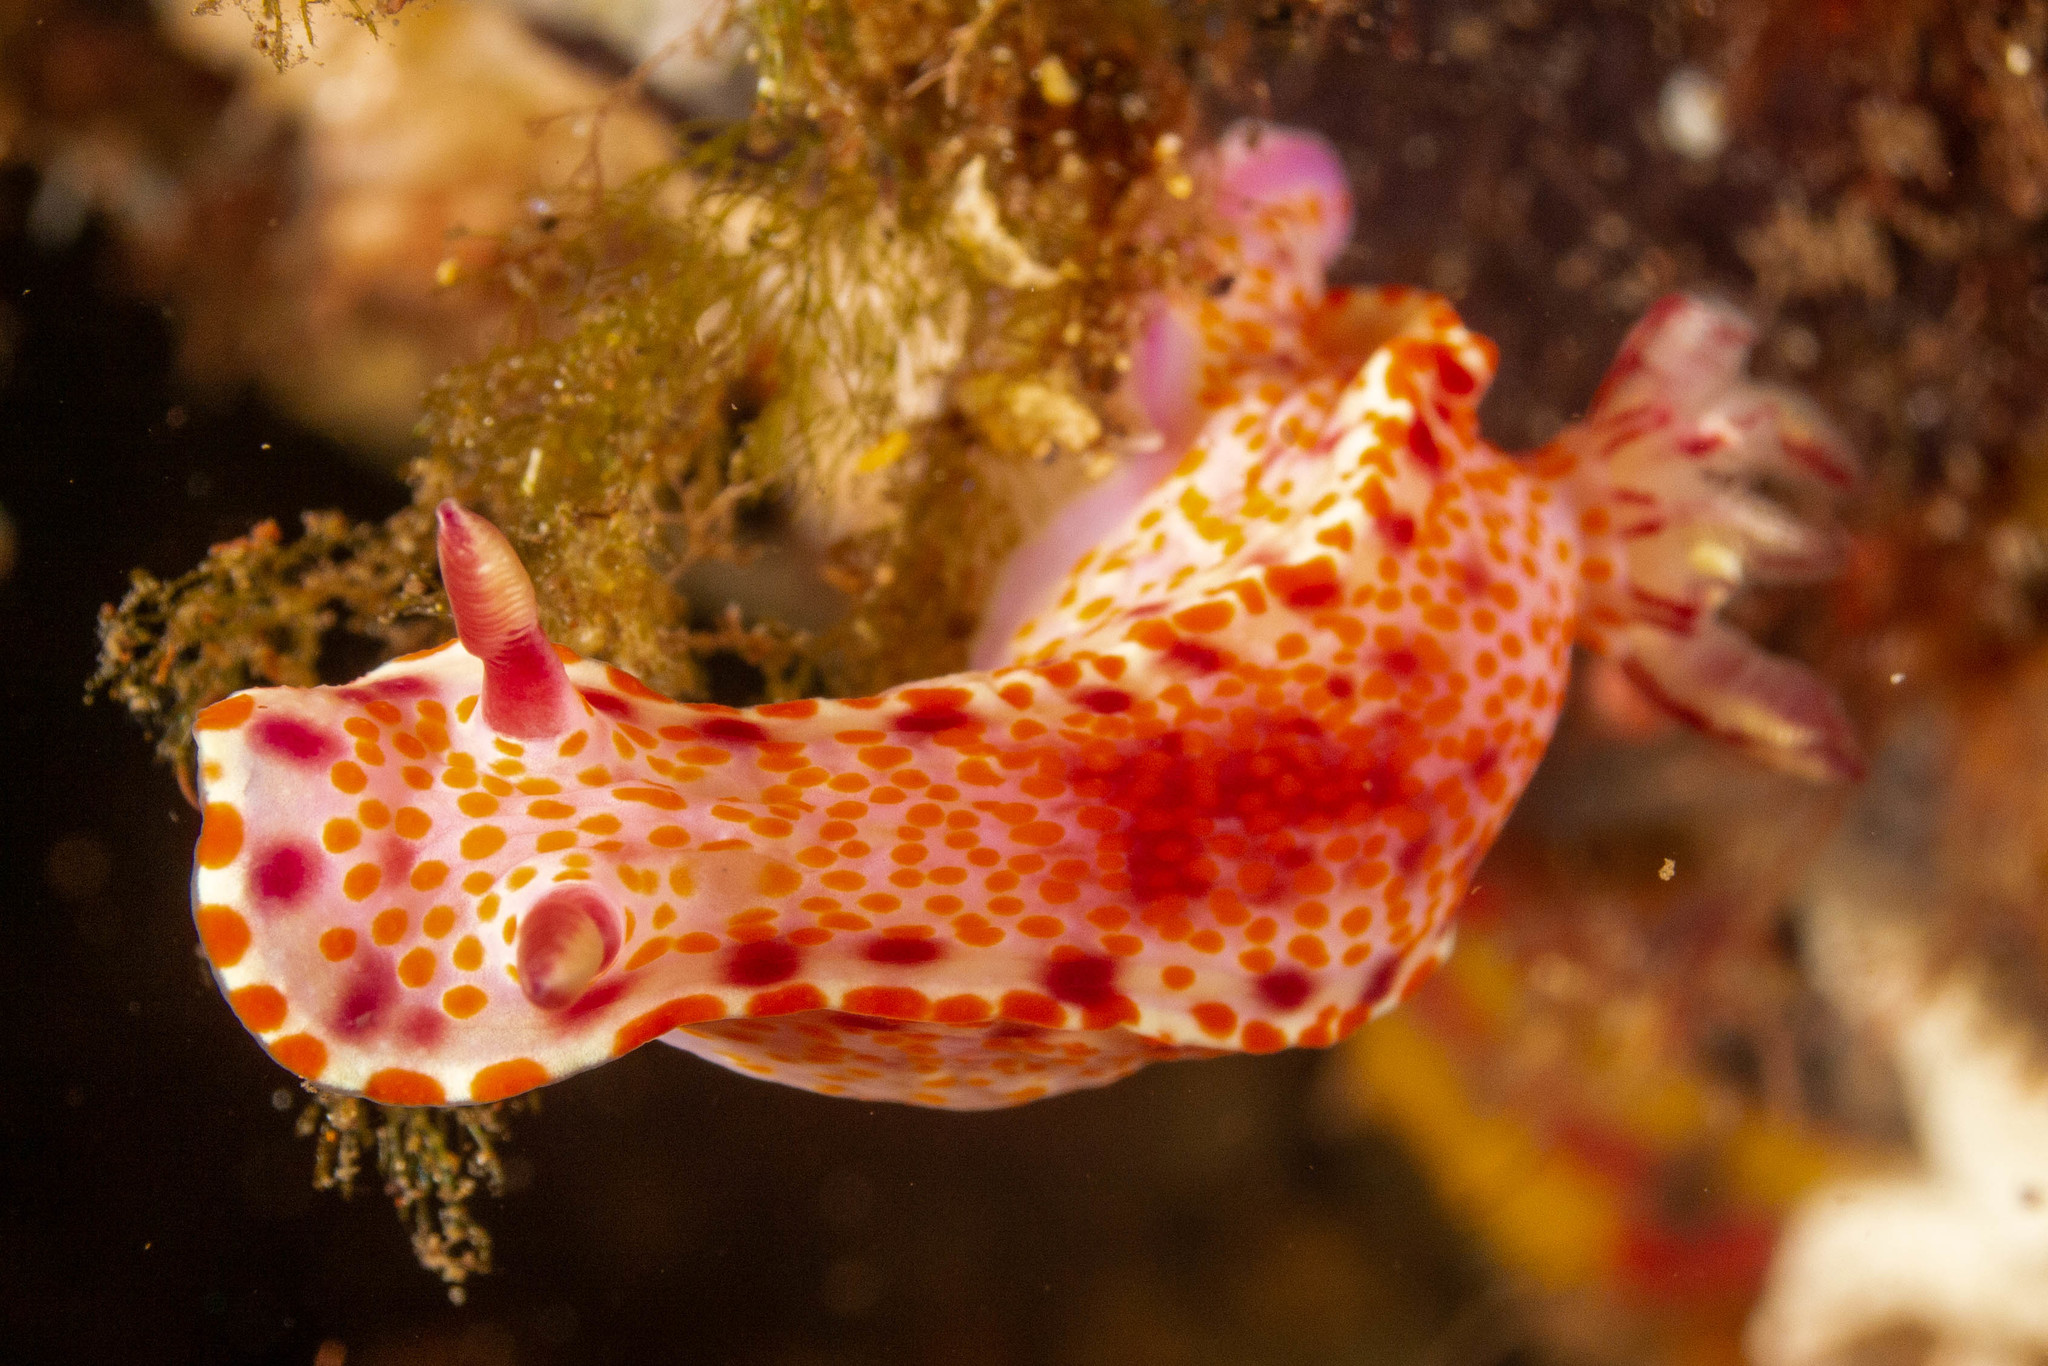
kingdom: Animalia
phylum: Mollusca
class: Gastropoda
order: Nudibranchia
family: Chromodorididae
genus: Ceratosoma
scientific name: Ceratosoma amoenum
